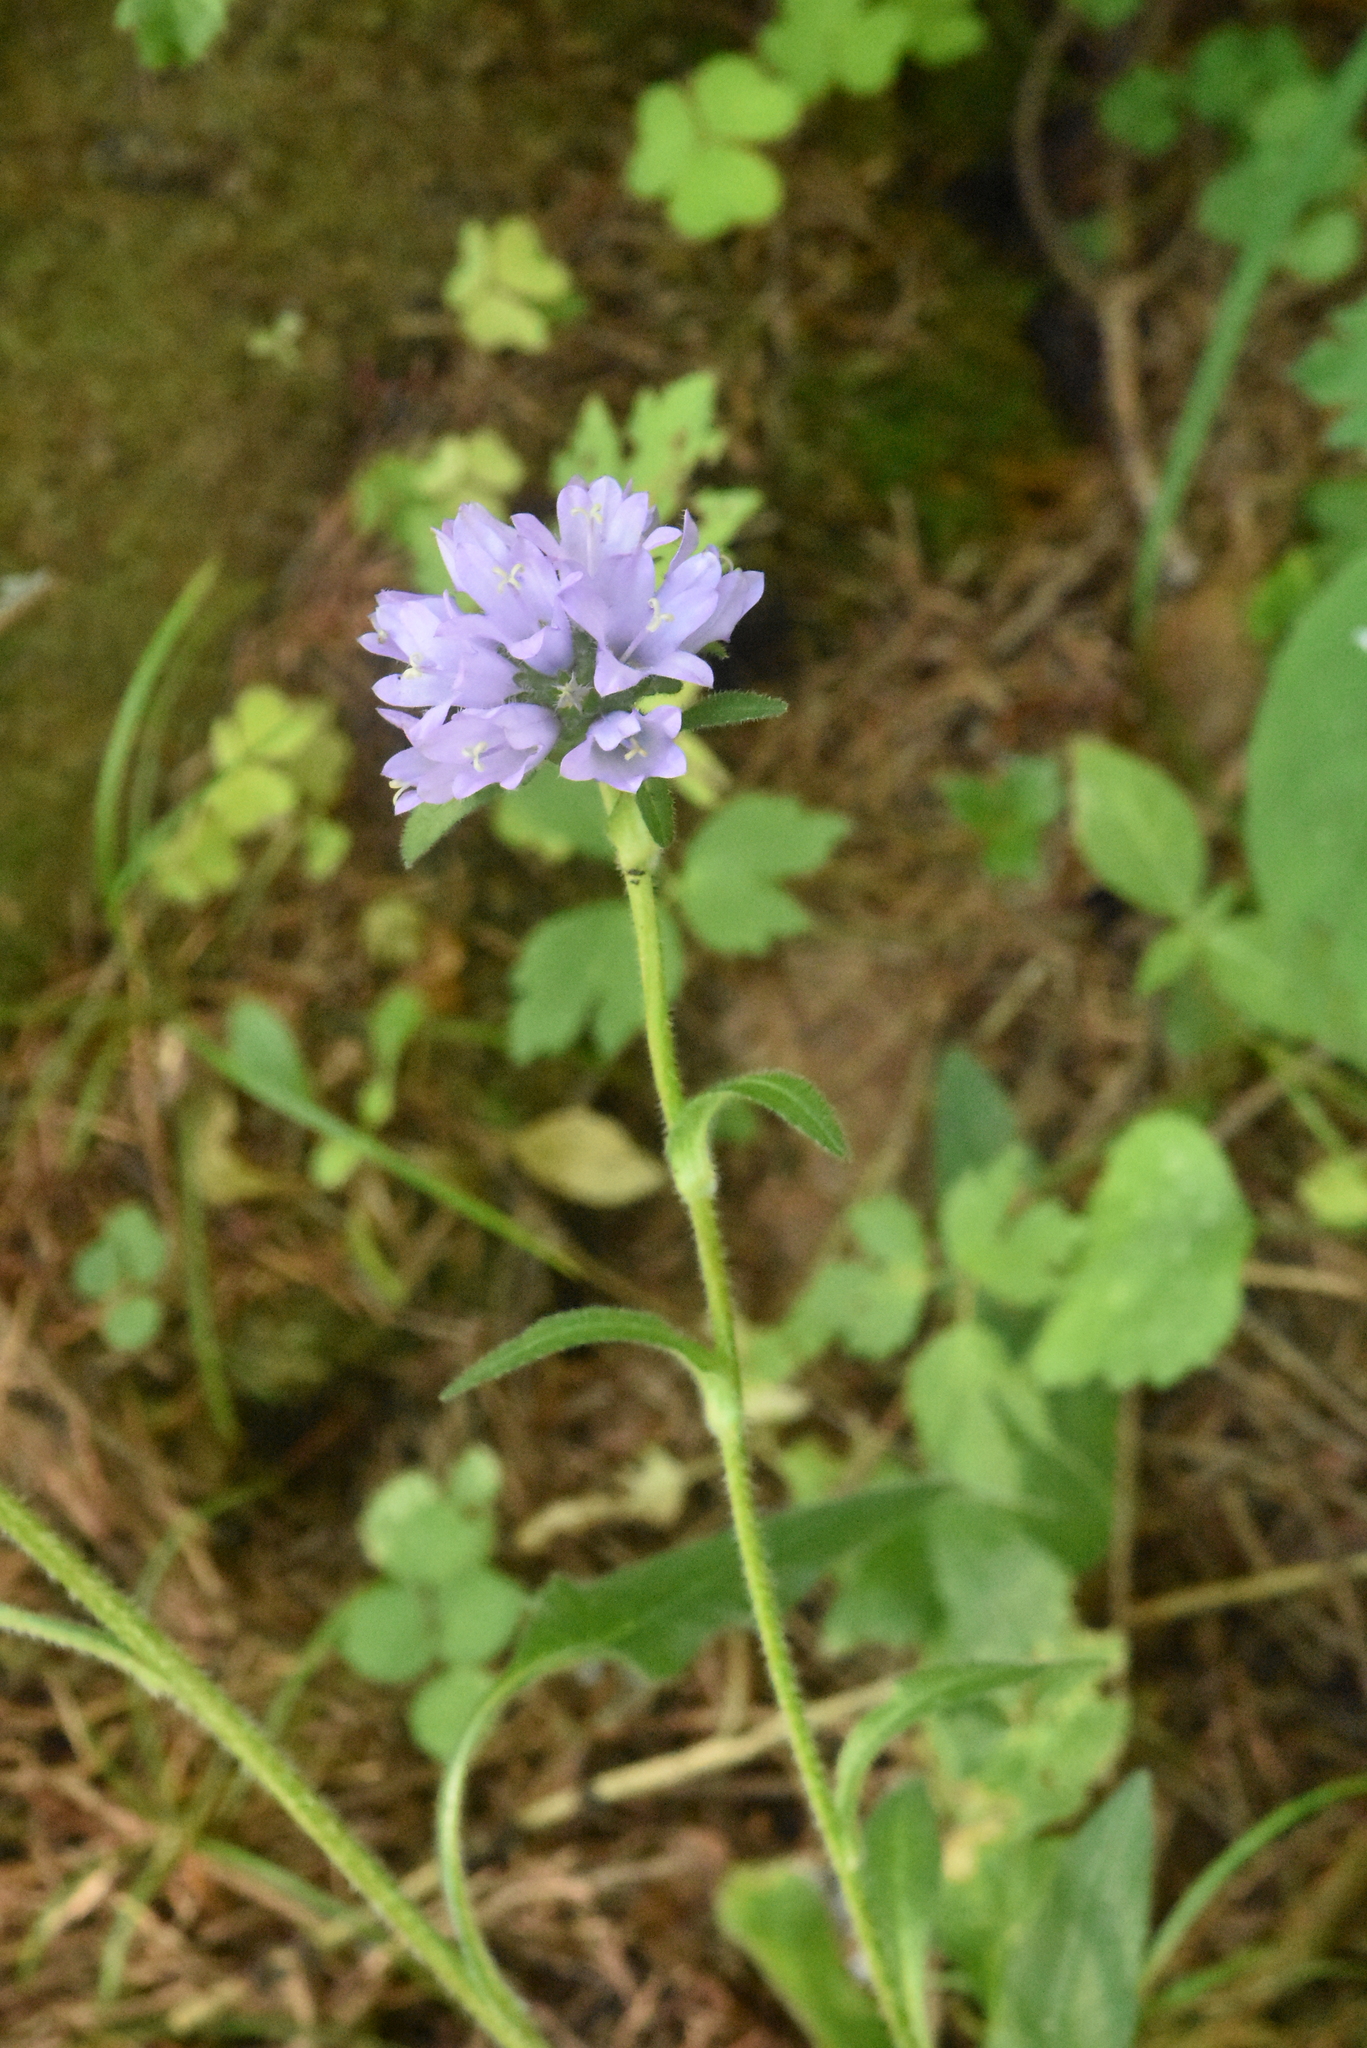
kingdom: Plantae
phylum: Tracheophyta
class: Magnoliopsida
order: Asterales
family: Campanulaceae
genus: Campanula
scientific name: Campanula cervicaria
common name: Bristly bellflower
